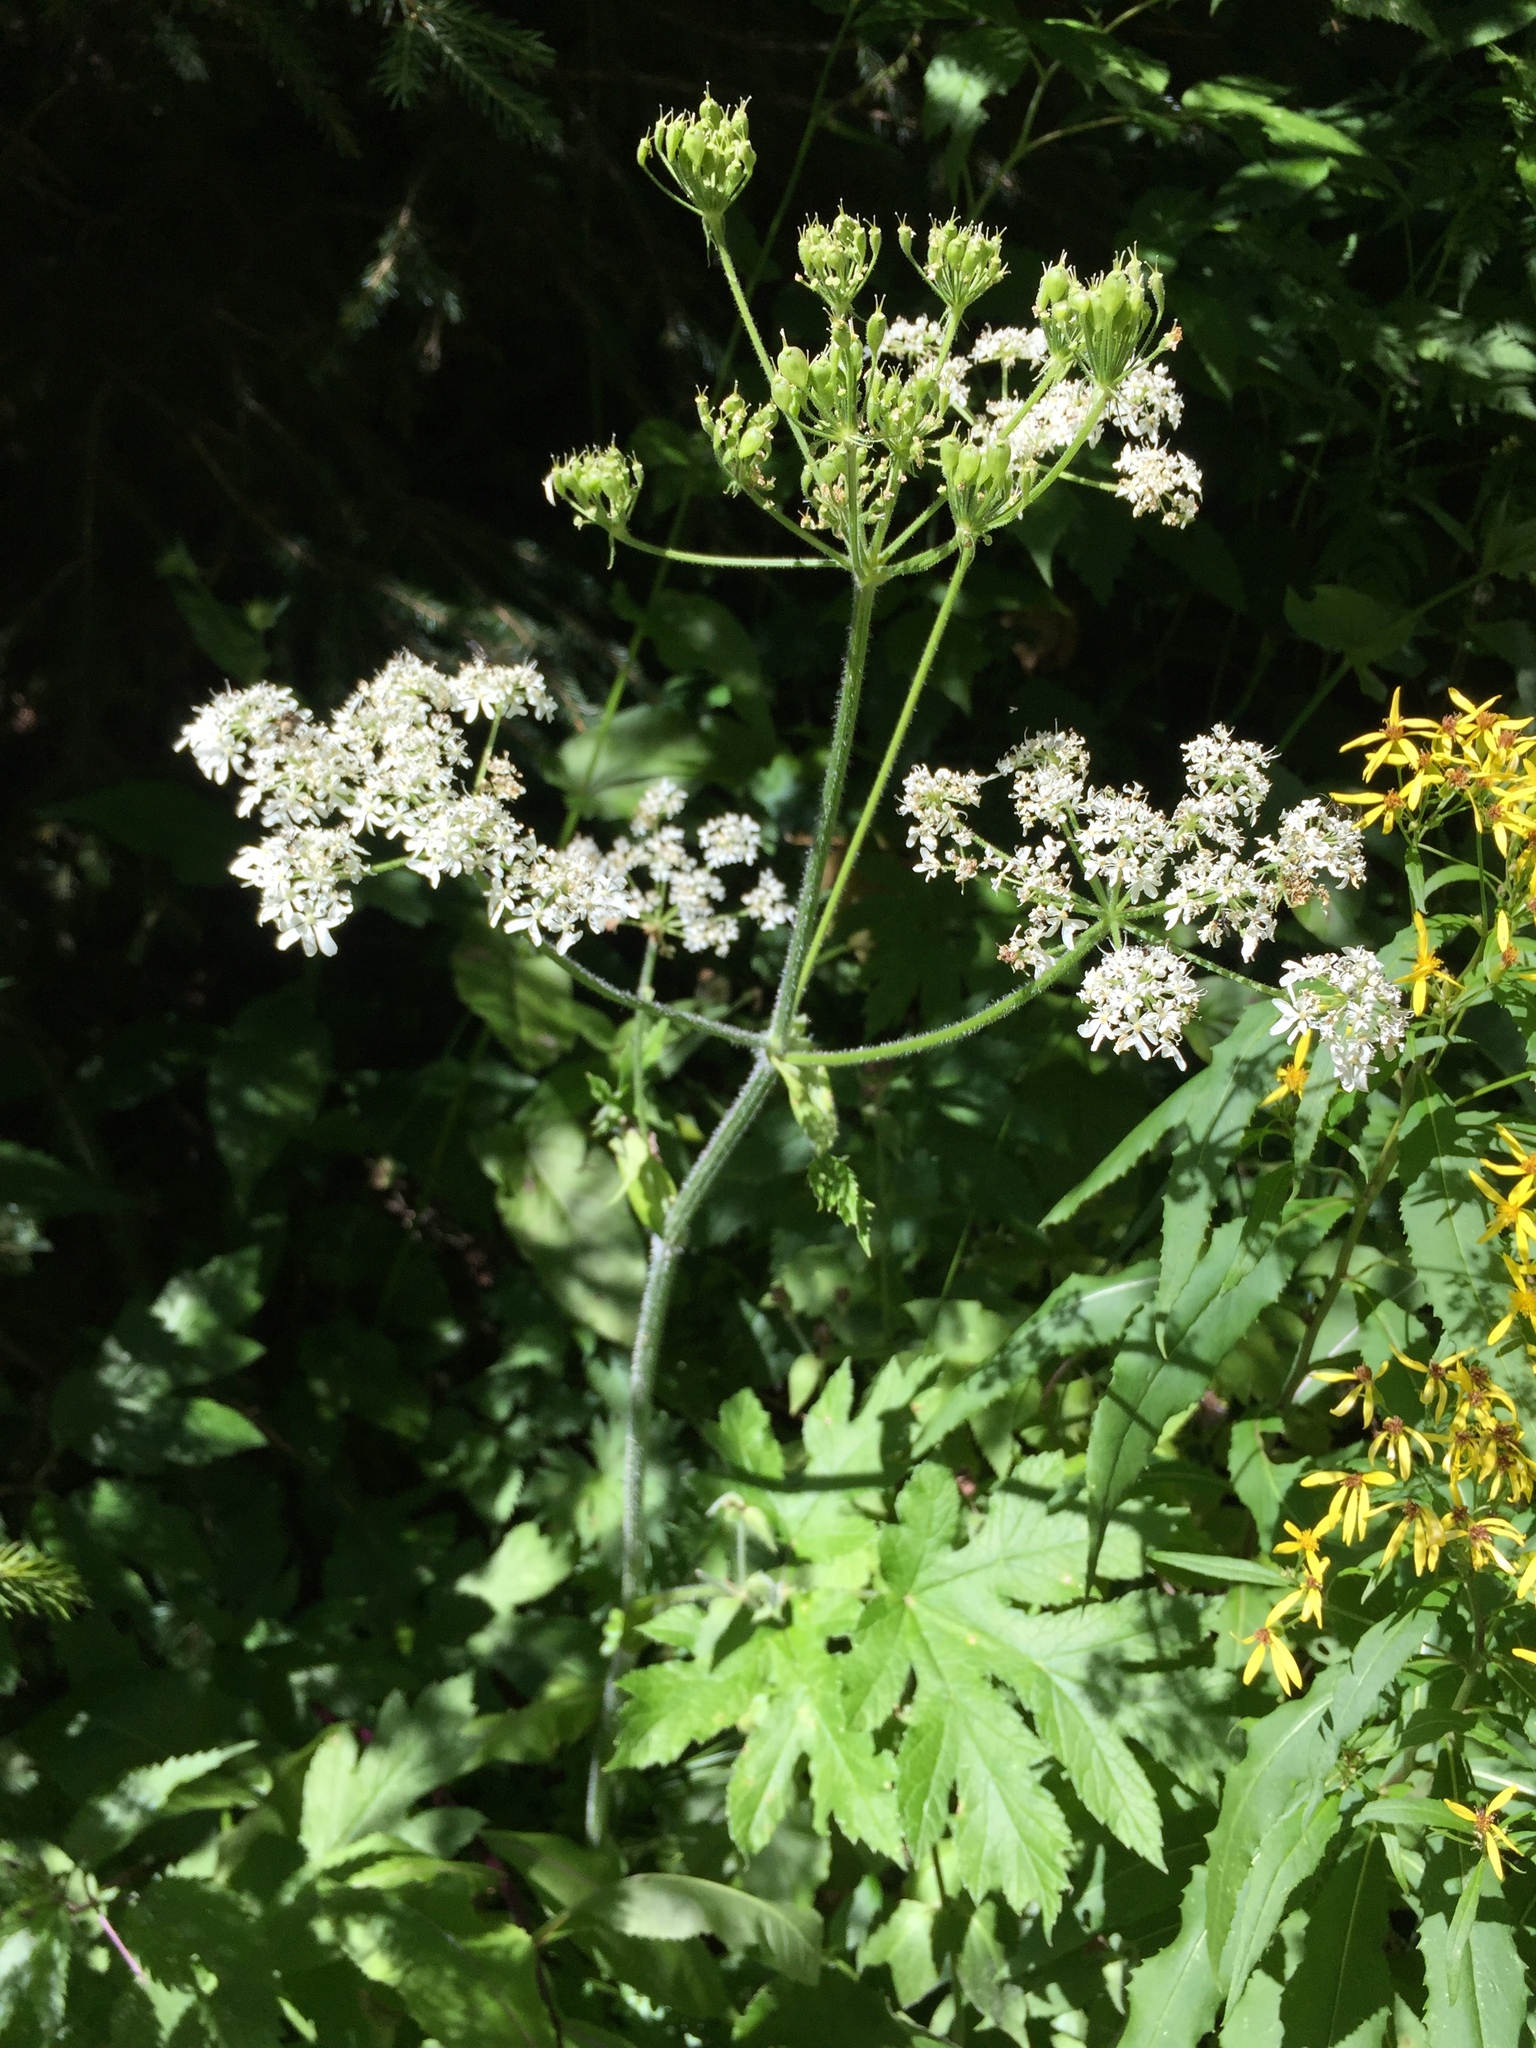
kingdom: Plantae
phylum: Tracheophyta
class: Magnoliopsida
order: Apiales
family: Apiaceae
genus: Heracleum
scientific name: Heracleum sphondylium
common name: Hogweed
